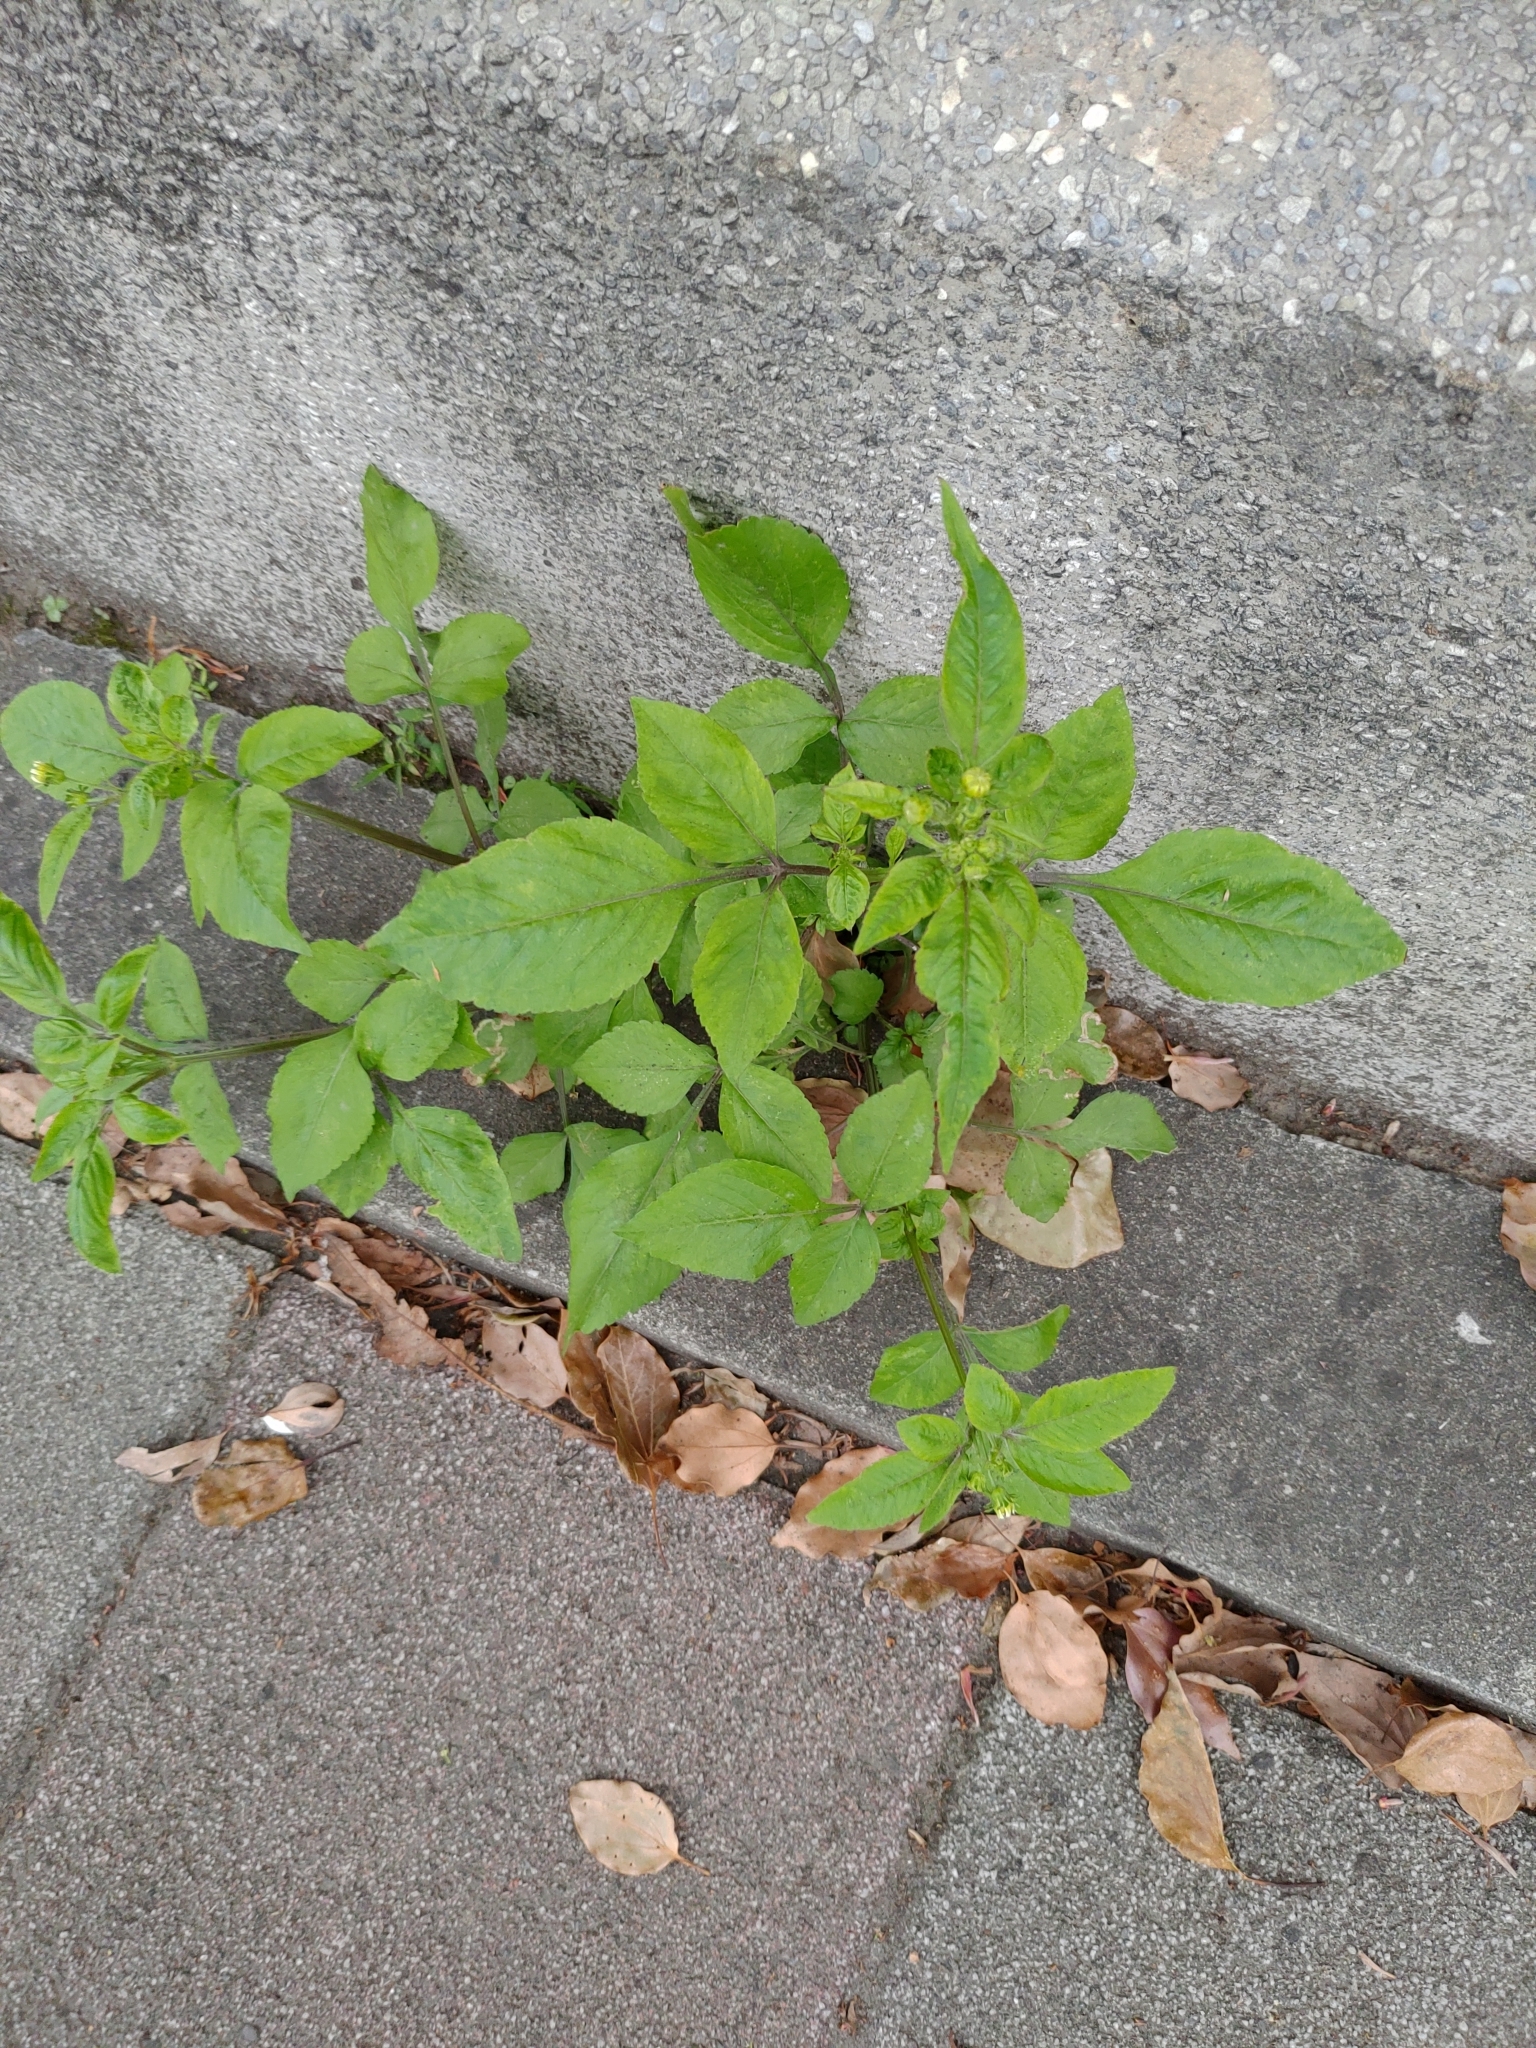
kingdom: Plantae
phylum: Tracheophyta
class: Magnoliopsida
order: Asterales
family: Asteraceae
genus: Bidens
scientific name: Bidens alba
